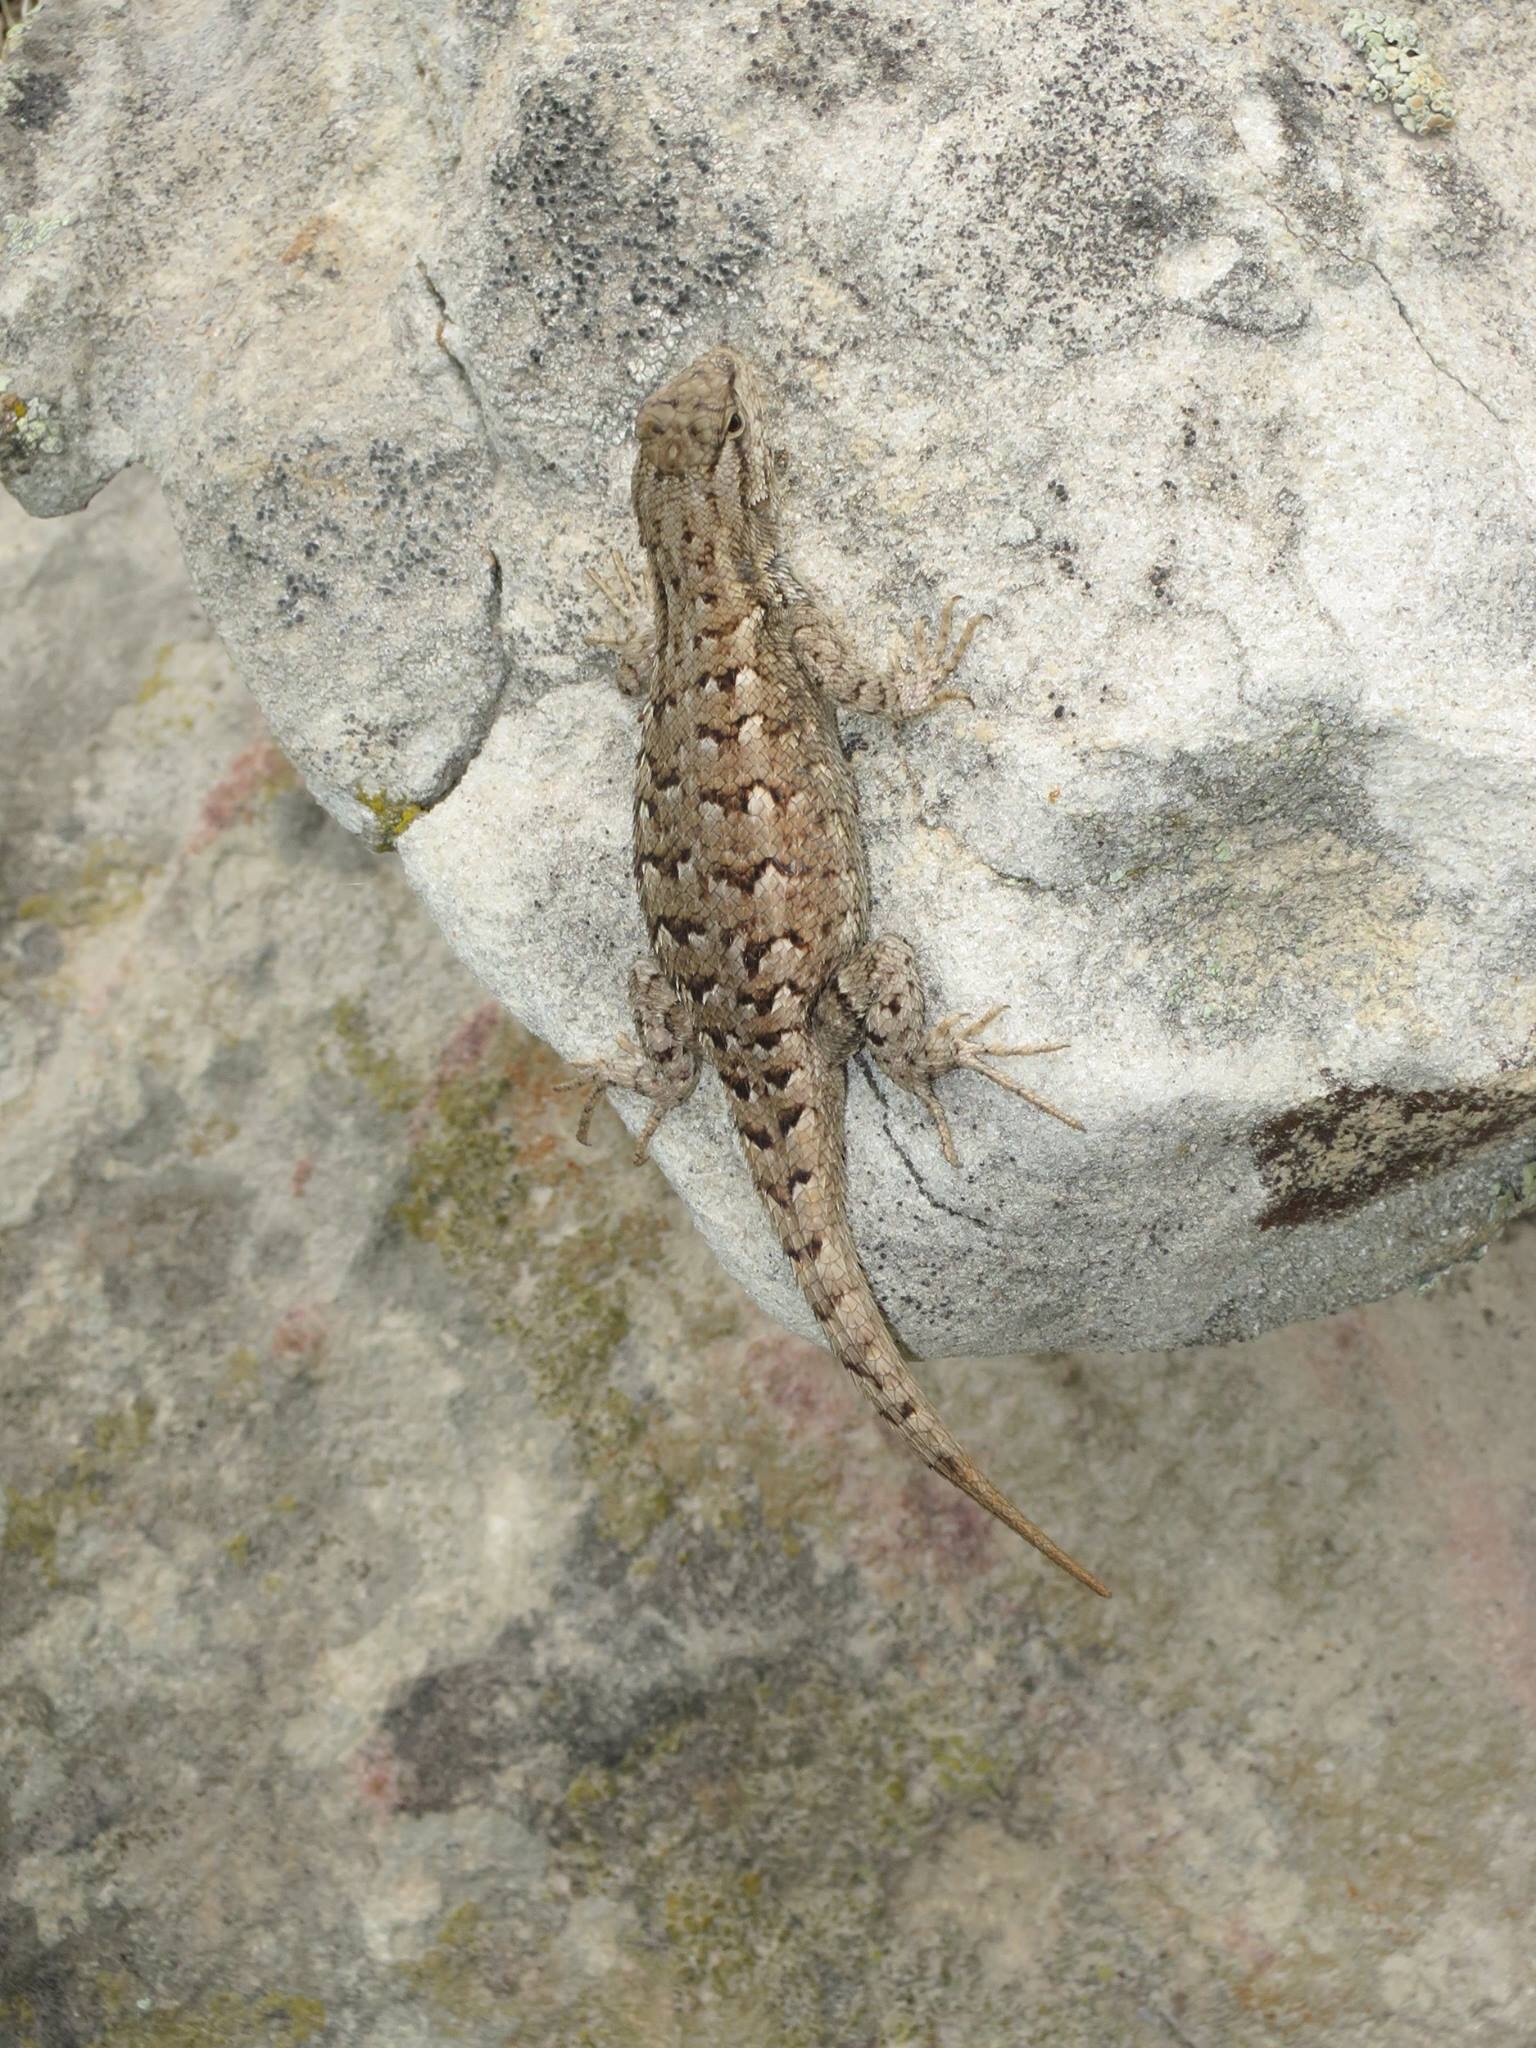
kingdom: Animalia
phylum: Chordata
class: Squamata
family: Phrynosomatidae
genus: Sceloporus
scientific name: Sceloporus consobrinus
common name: Southern prairie lizard
